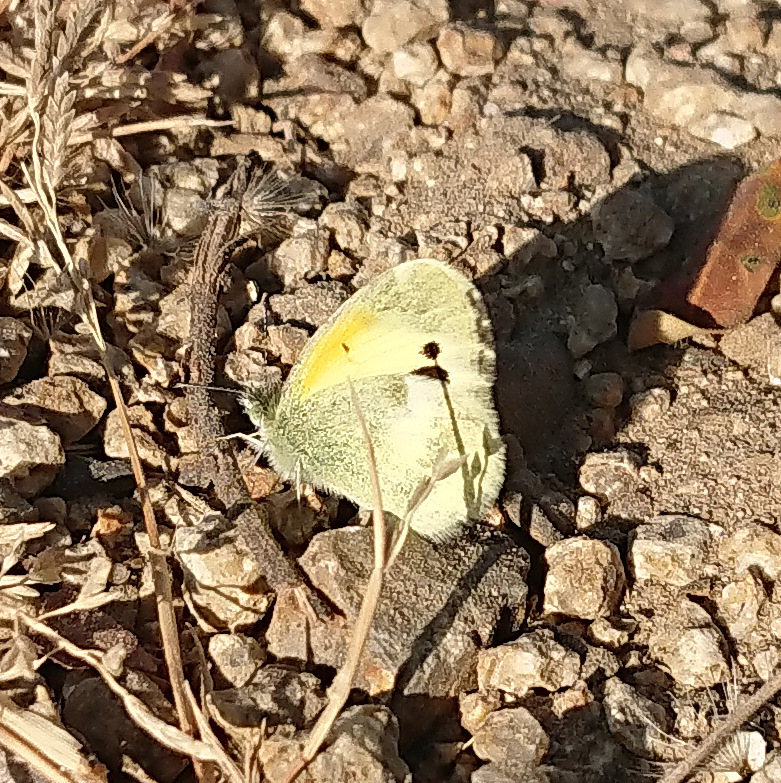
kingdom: Animalia
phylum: Arthropoda
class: Insecta
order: Lepidoptera
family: Pieridae
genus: Nathalis
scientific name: Nathalis iole
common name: Dainty sulphur
